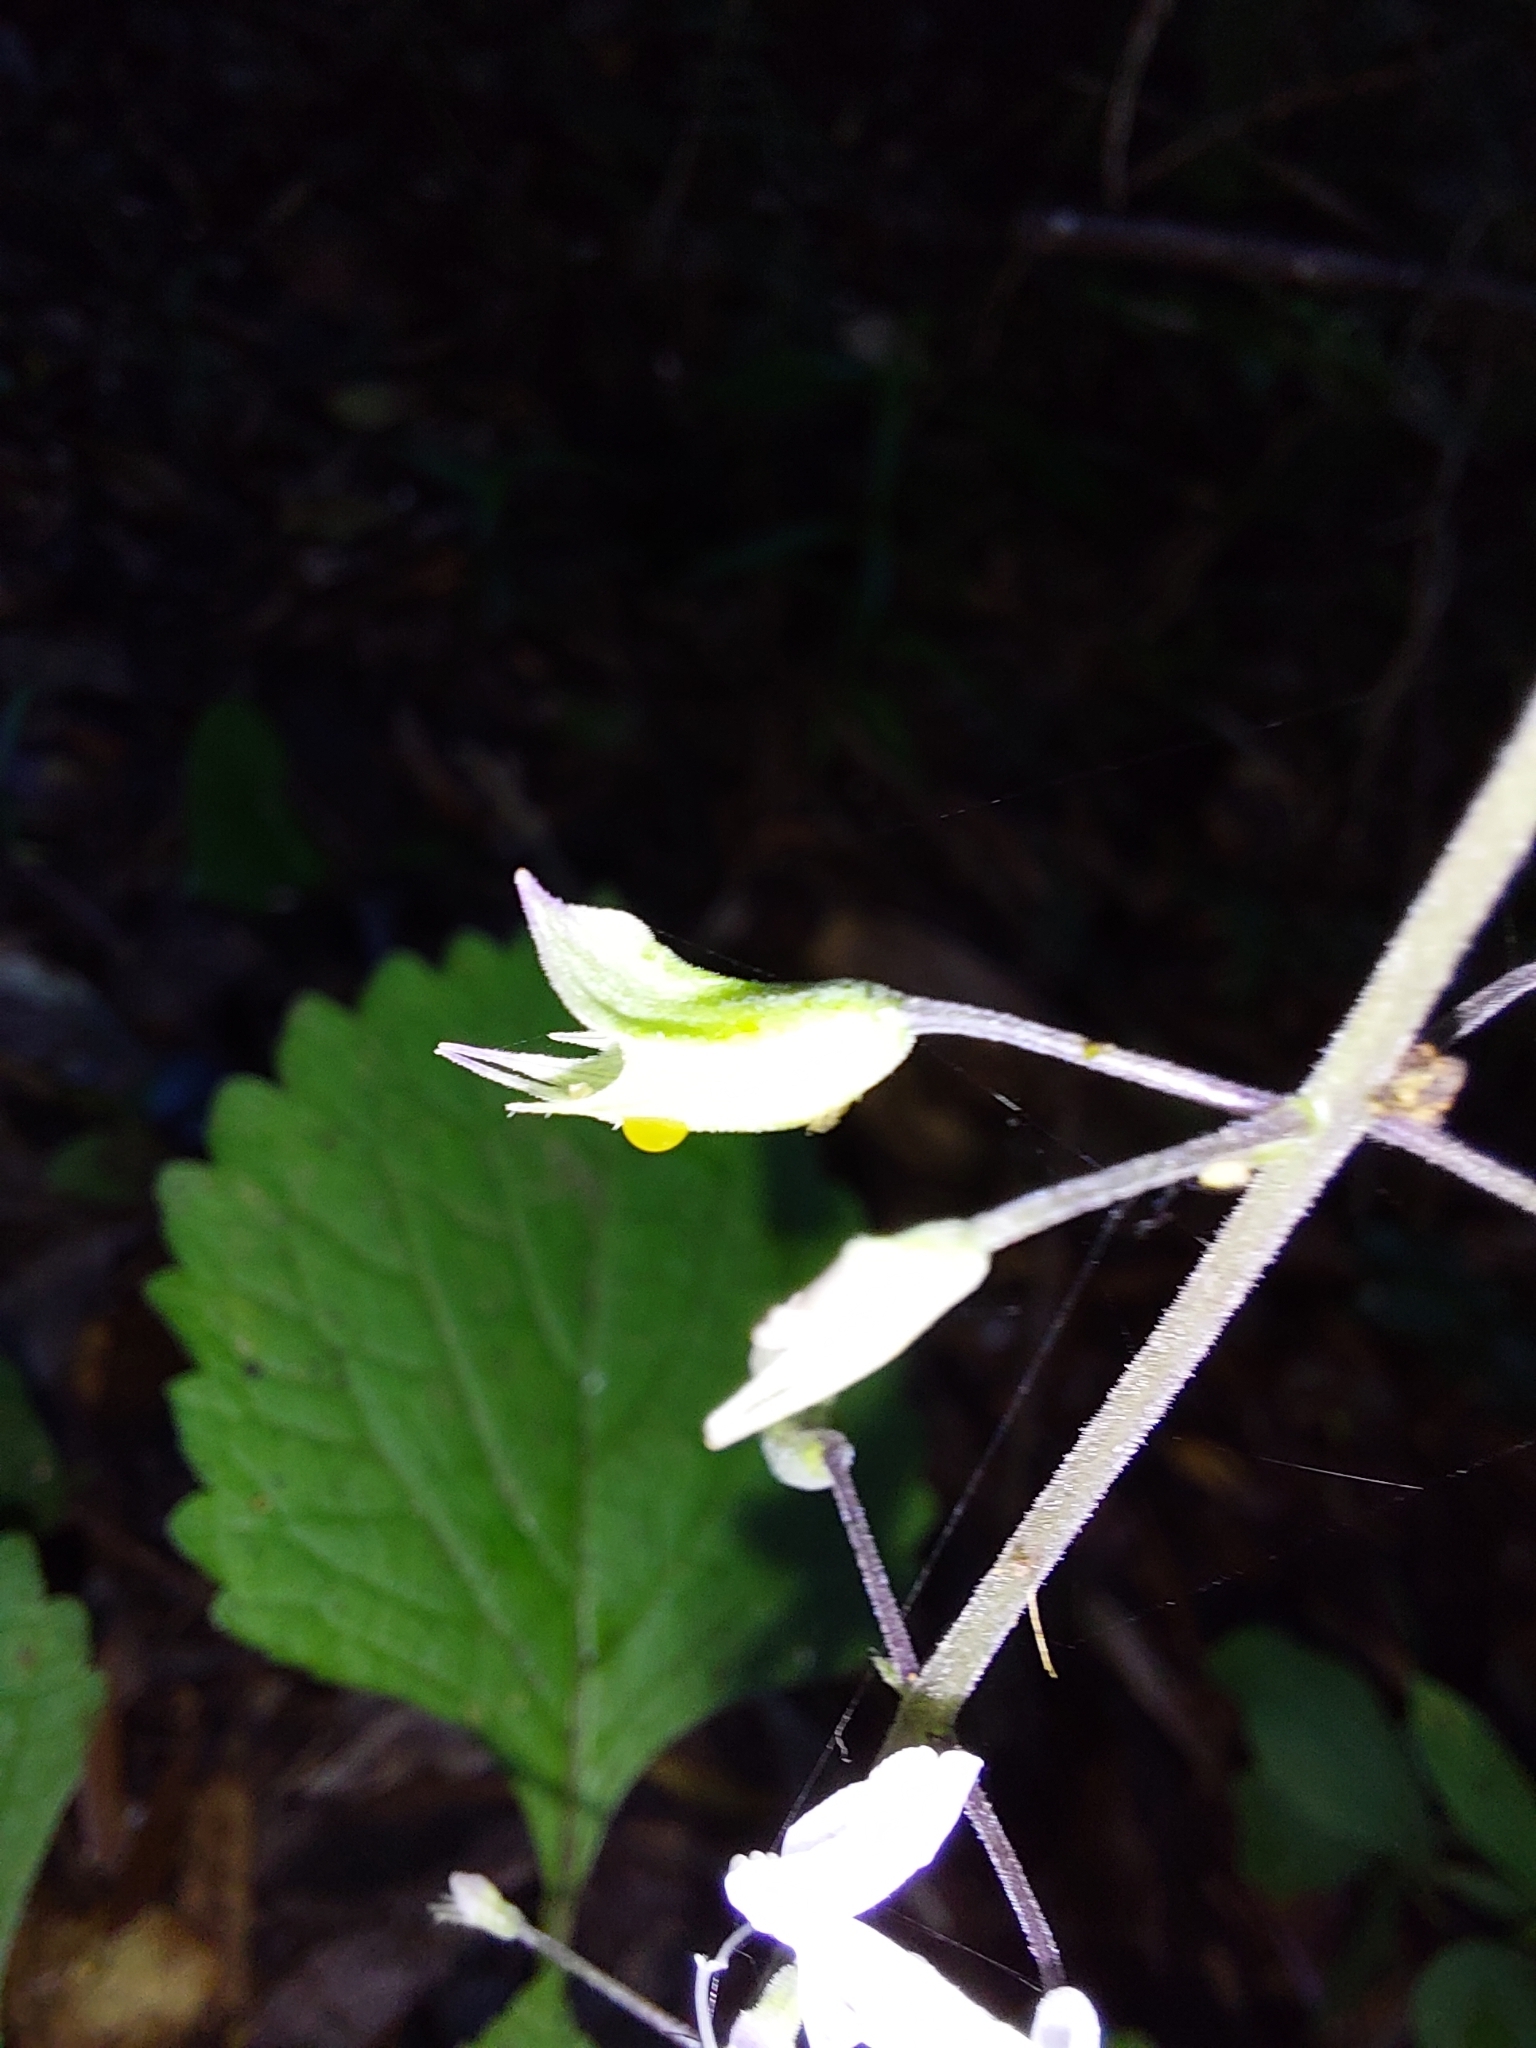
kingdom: Plantae
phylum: Tracheophyta
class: Magnoliopsida
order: Lamiales
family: Lamiaceae
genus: Plectranthus
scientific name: Plectranthus fruticosus
